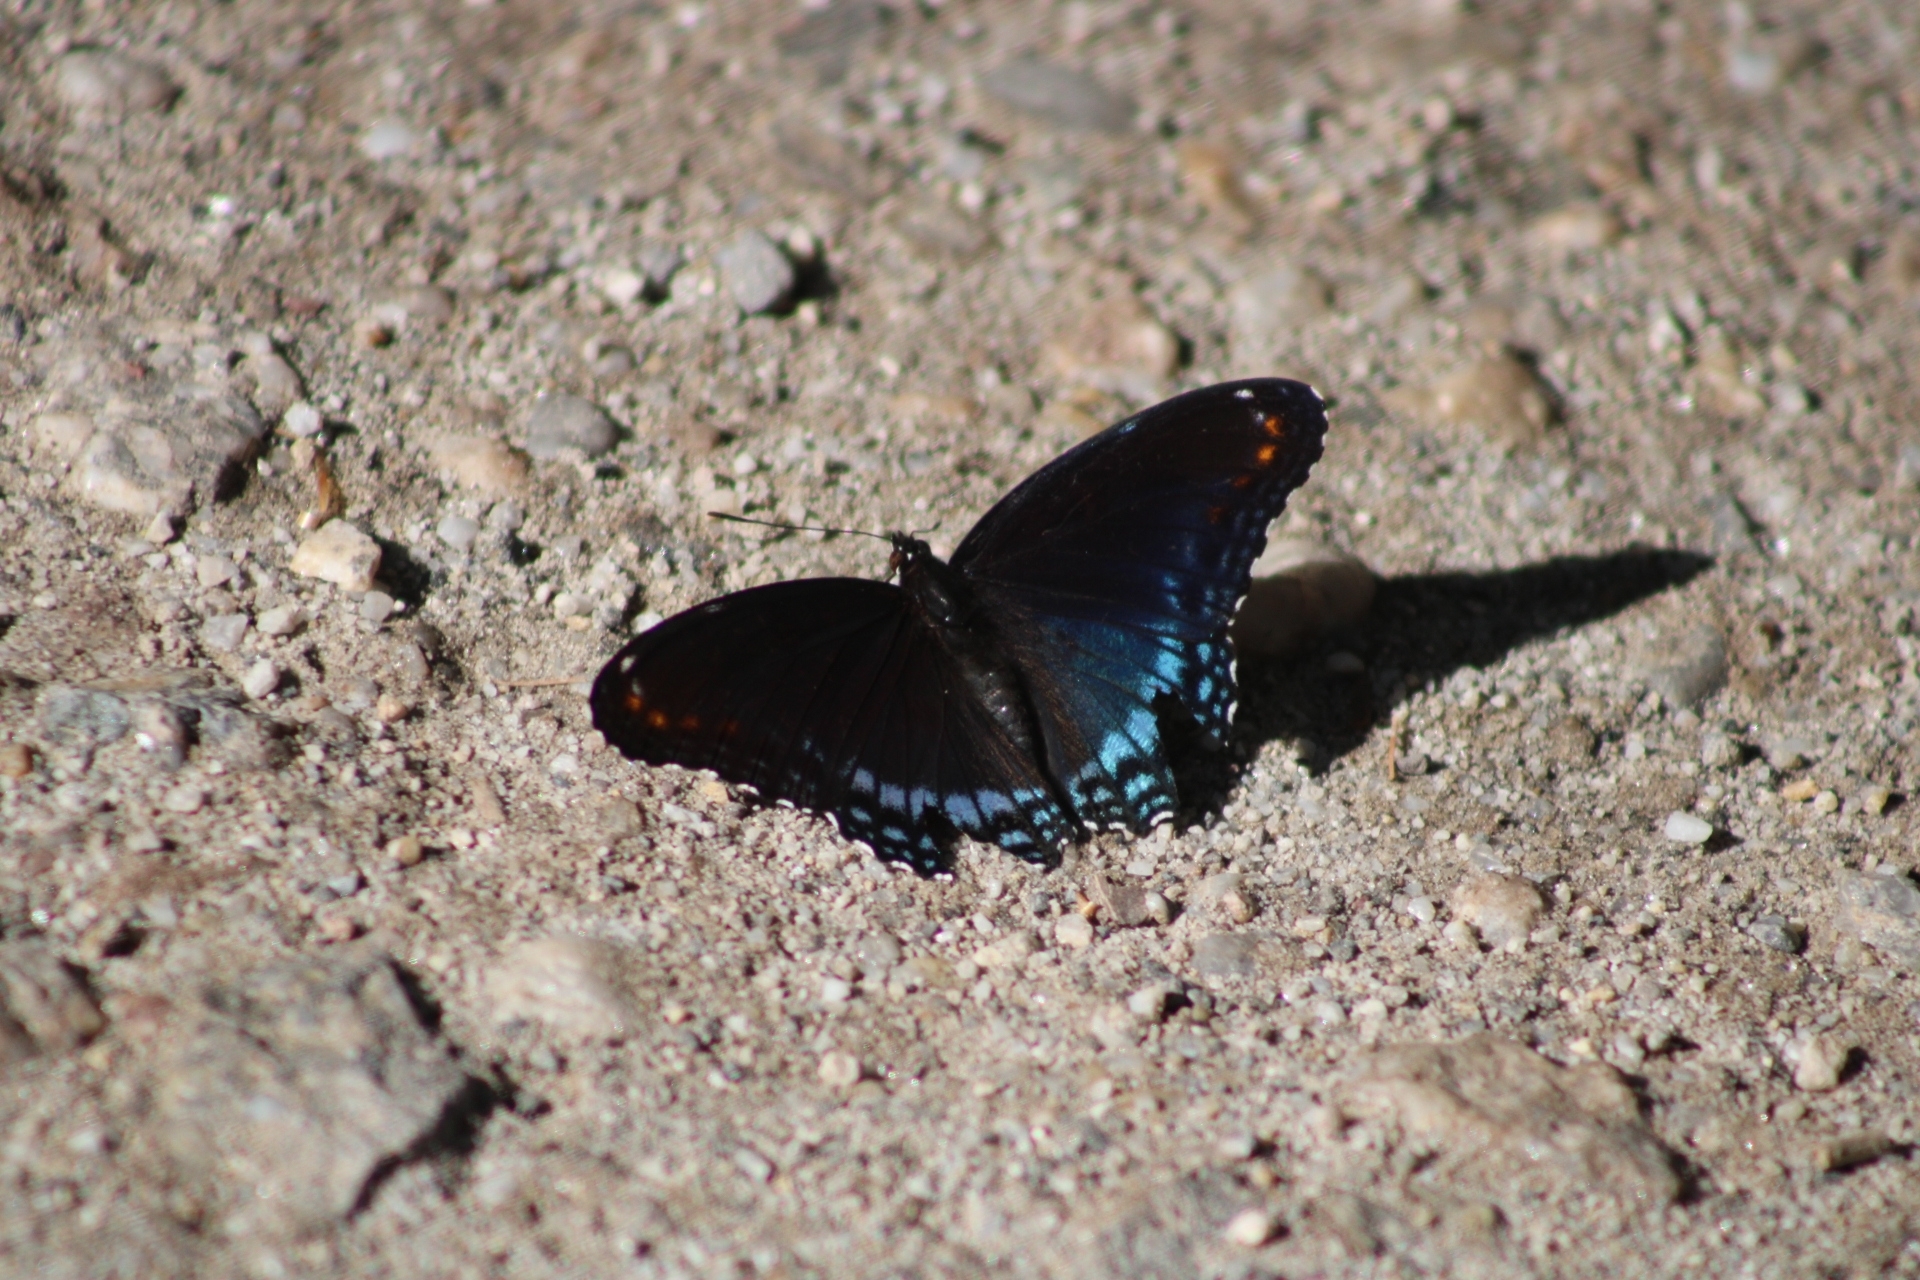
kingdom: Animalia
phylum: Arthropoda
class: Insecta
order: Lepidoptera
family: Nymphalidae
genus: Limenitis
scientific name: Limenitis arthemis
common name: Red-spotted admiral
